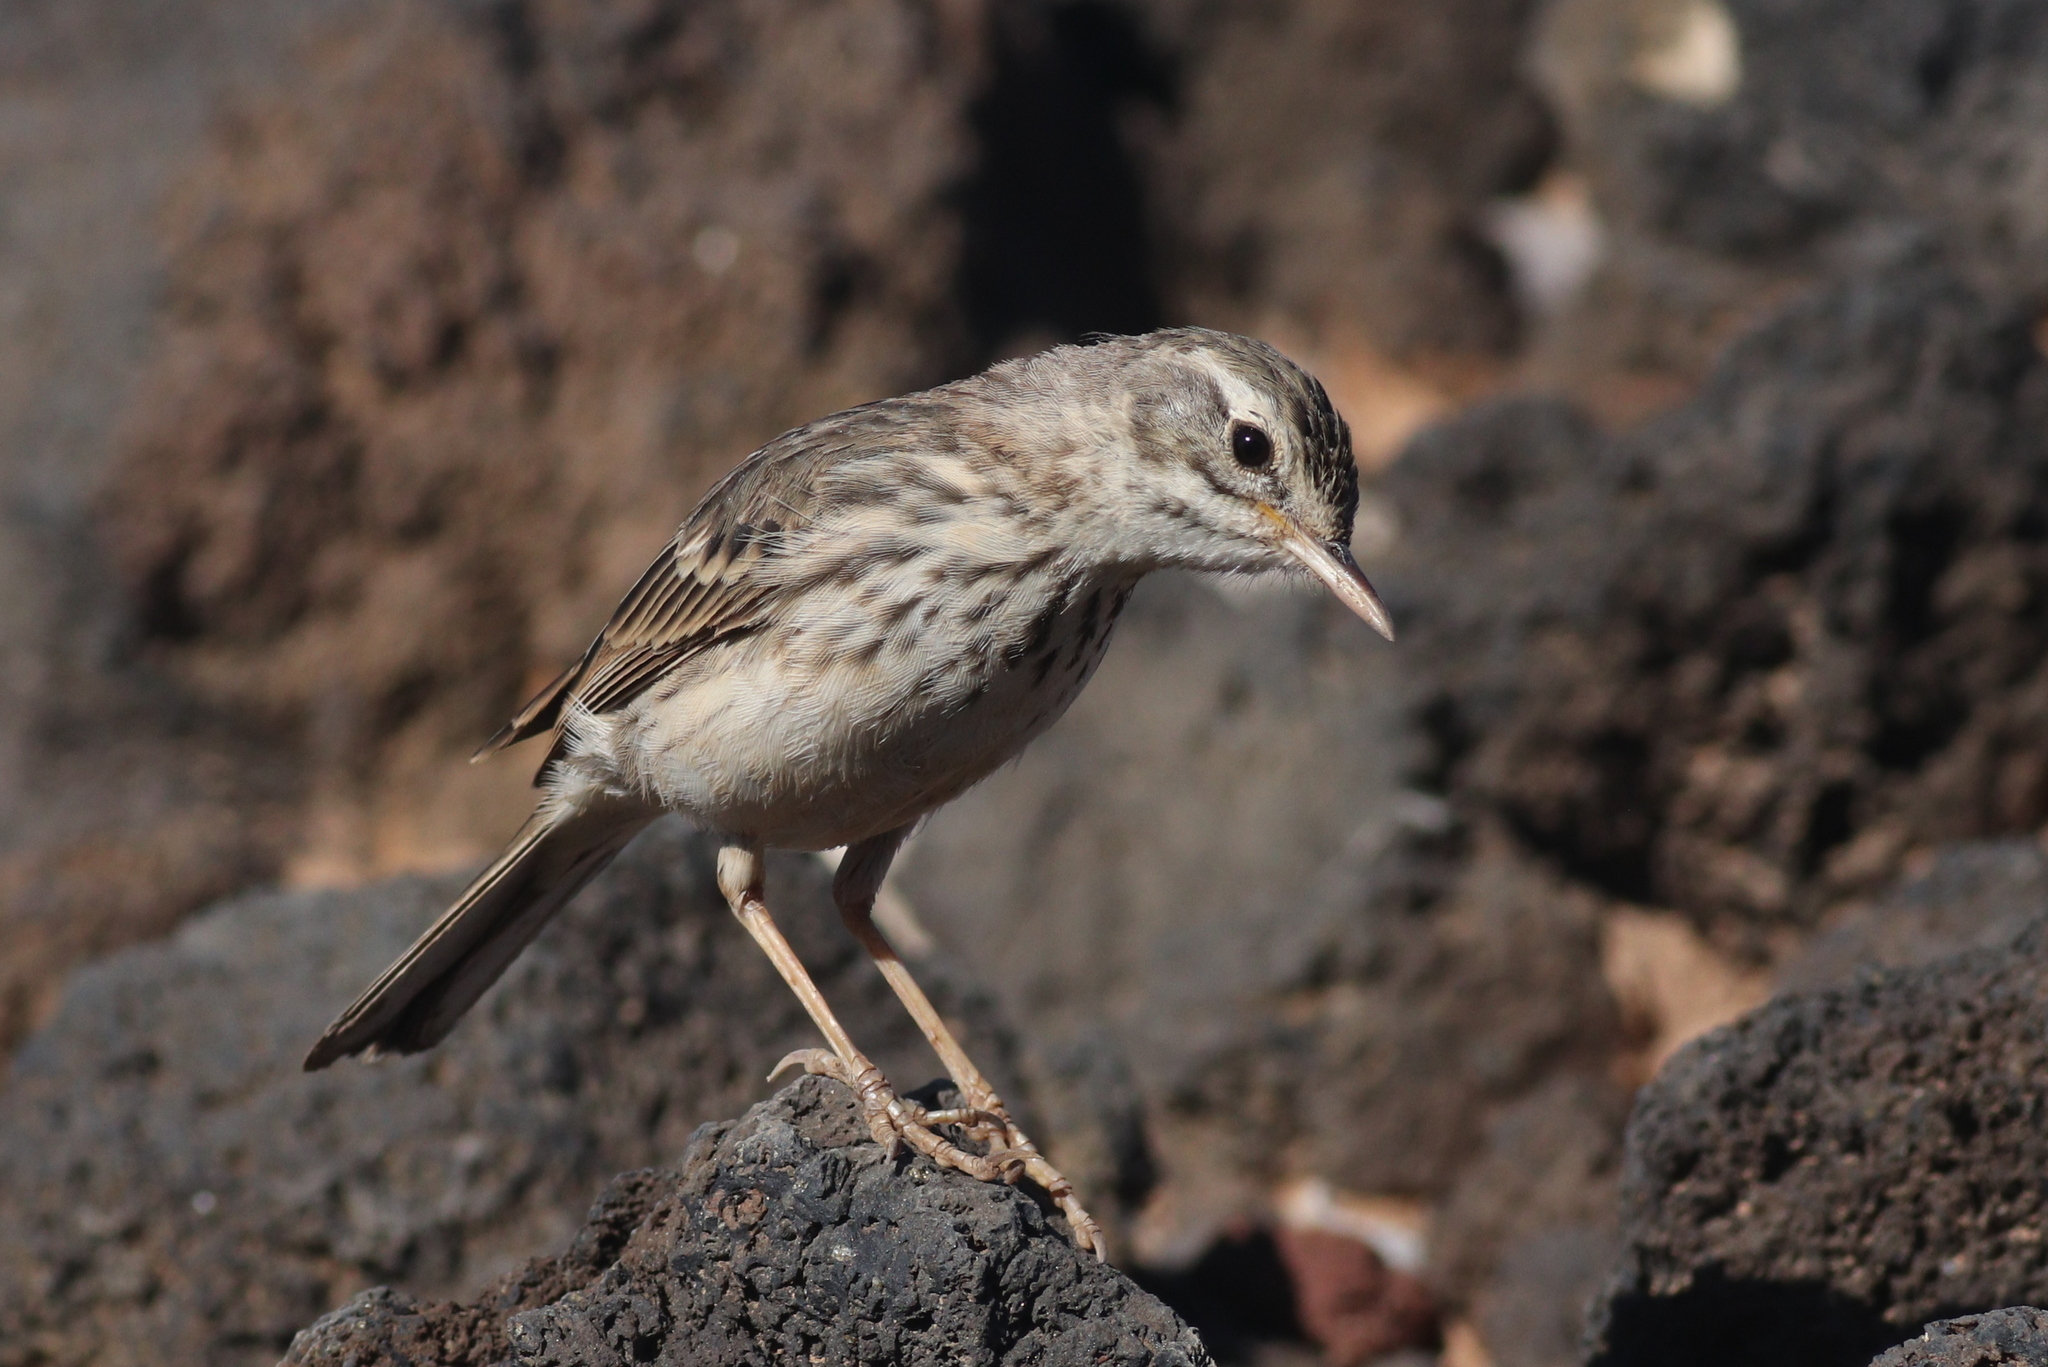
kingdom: Animalia
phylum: Chordata
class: Aves
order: Passeriformes
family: Motacillidae
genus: Anthus
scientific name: Anthus berthelotii
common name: Berthelot's pipit
